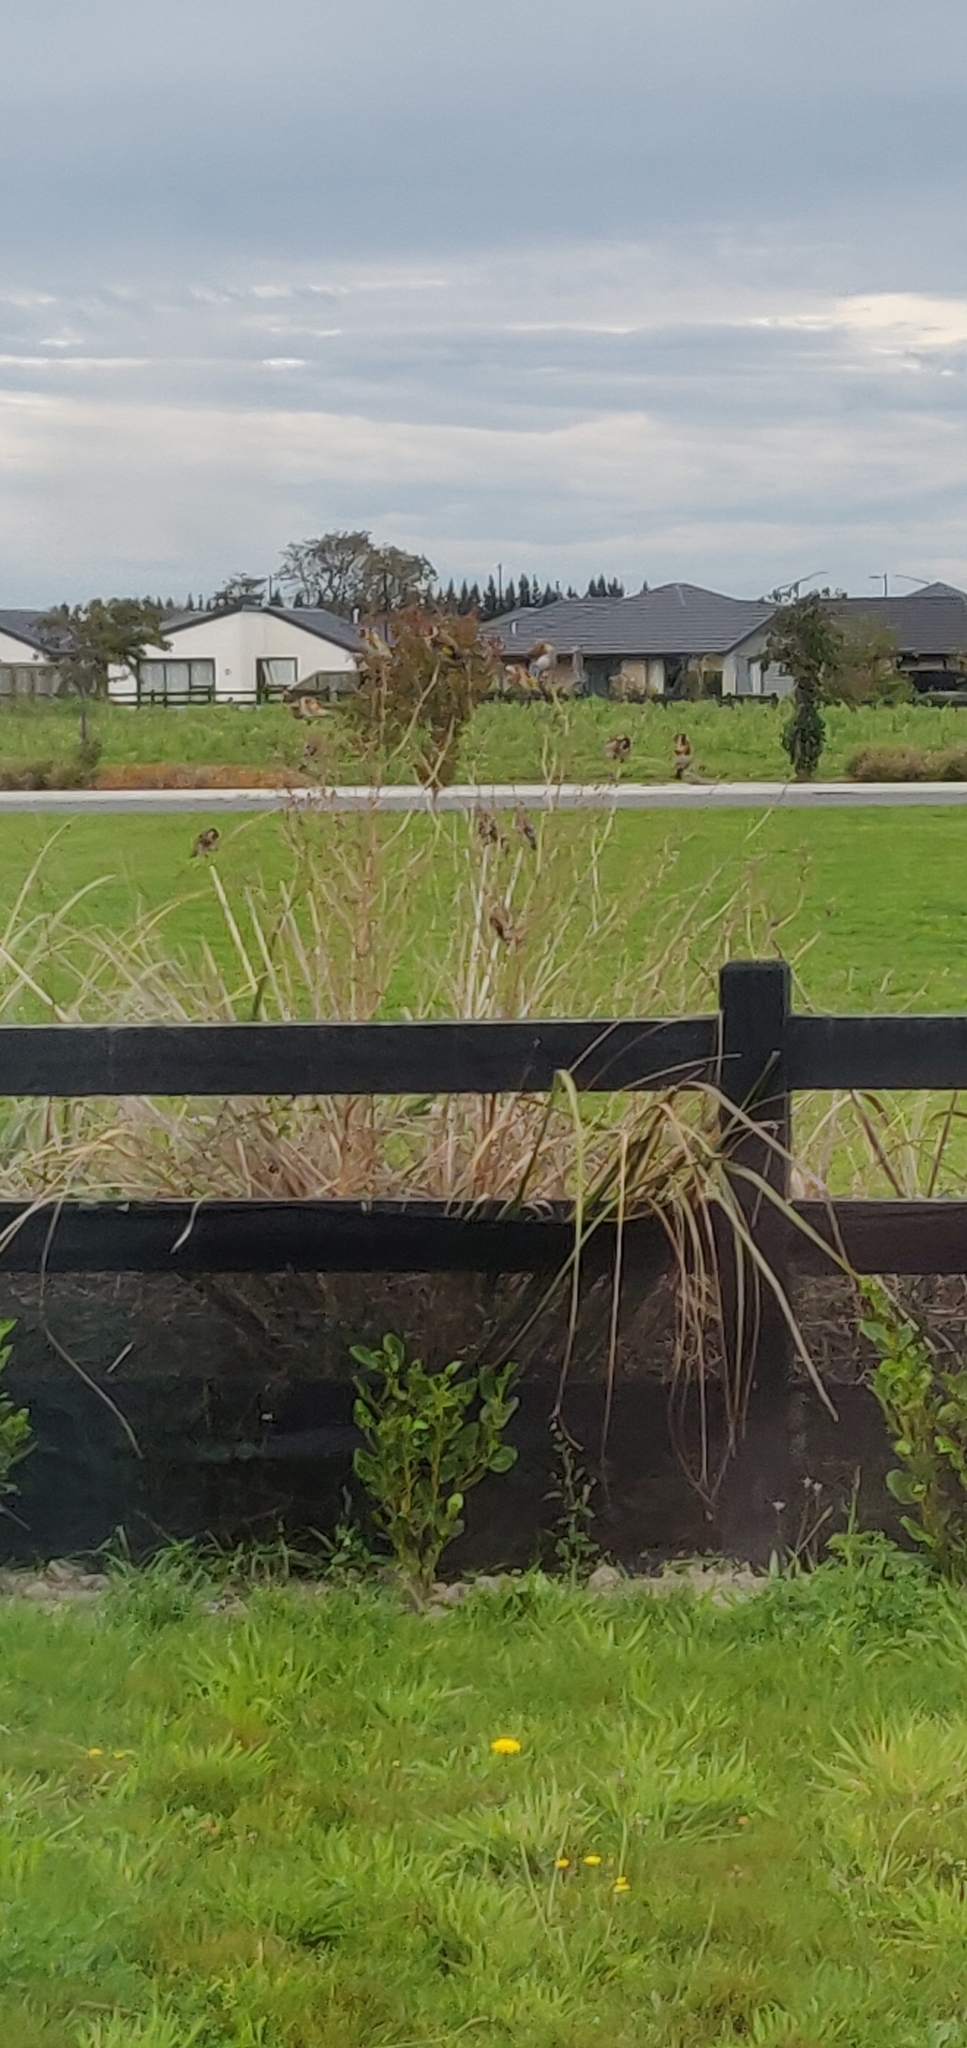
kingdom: Animalia
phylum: Chordata
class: Aves
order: Passeriformes
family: Fringillidae
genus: Carduelis
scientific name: Carduelis carduelis
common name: European goldfinch
